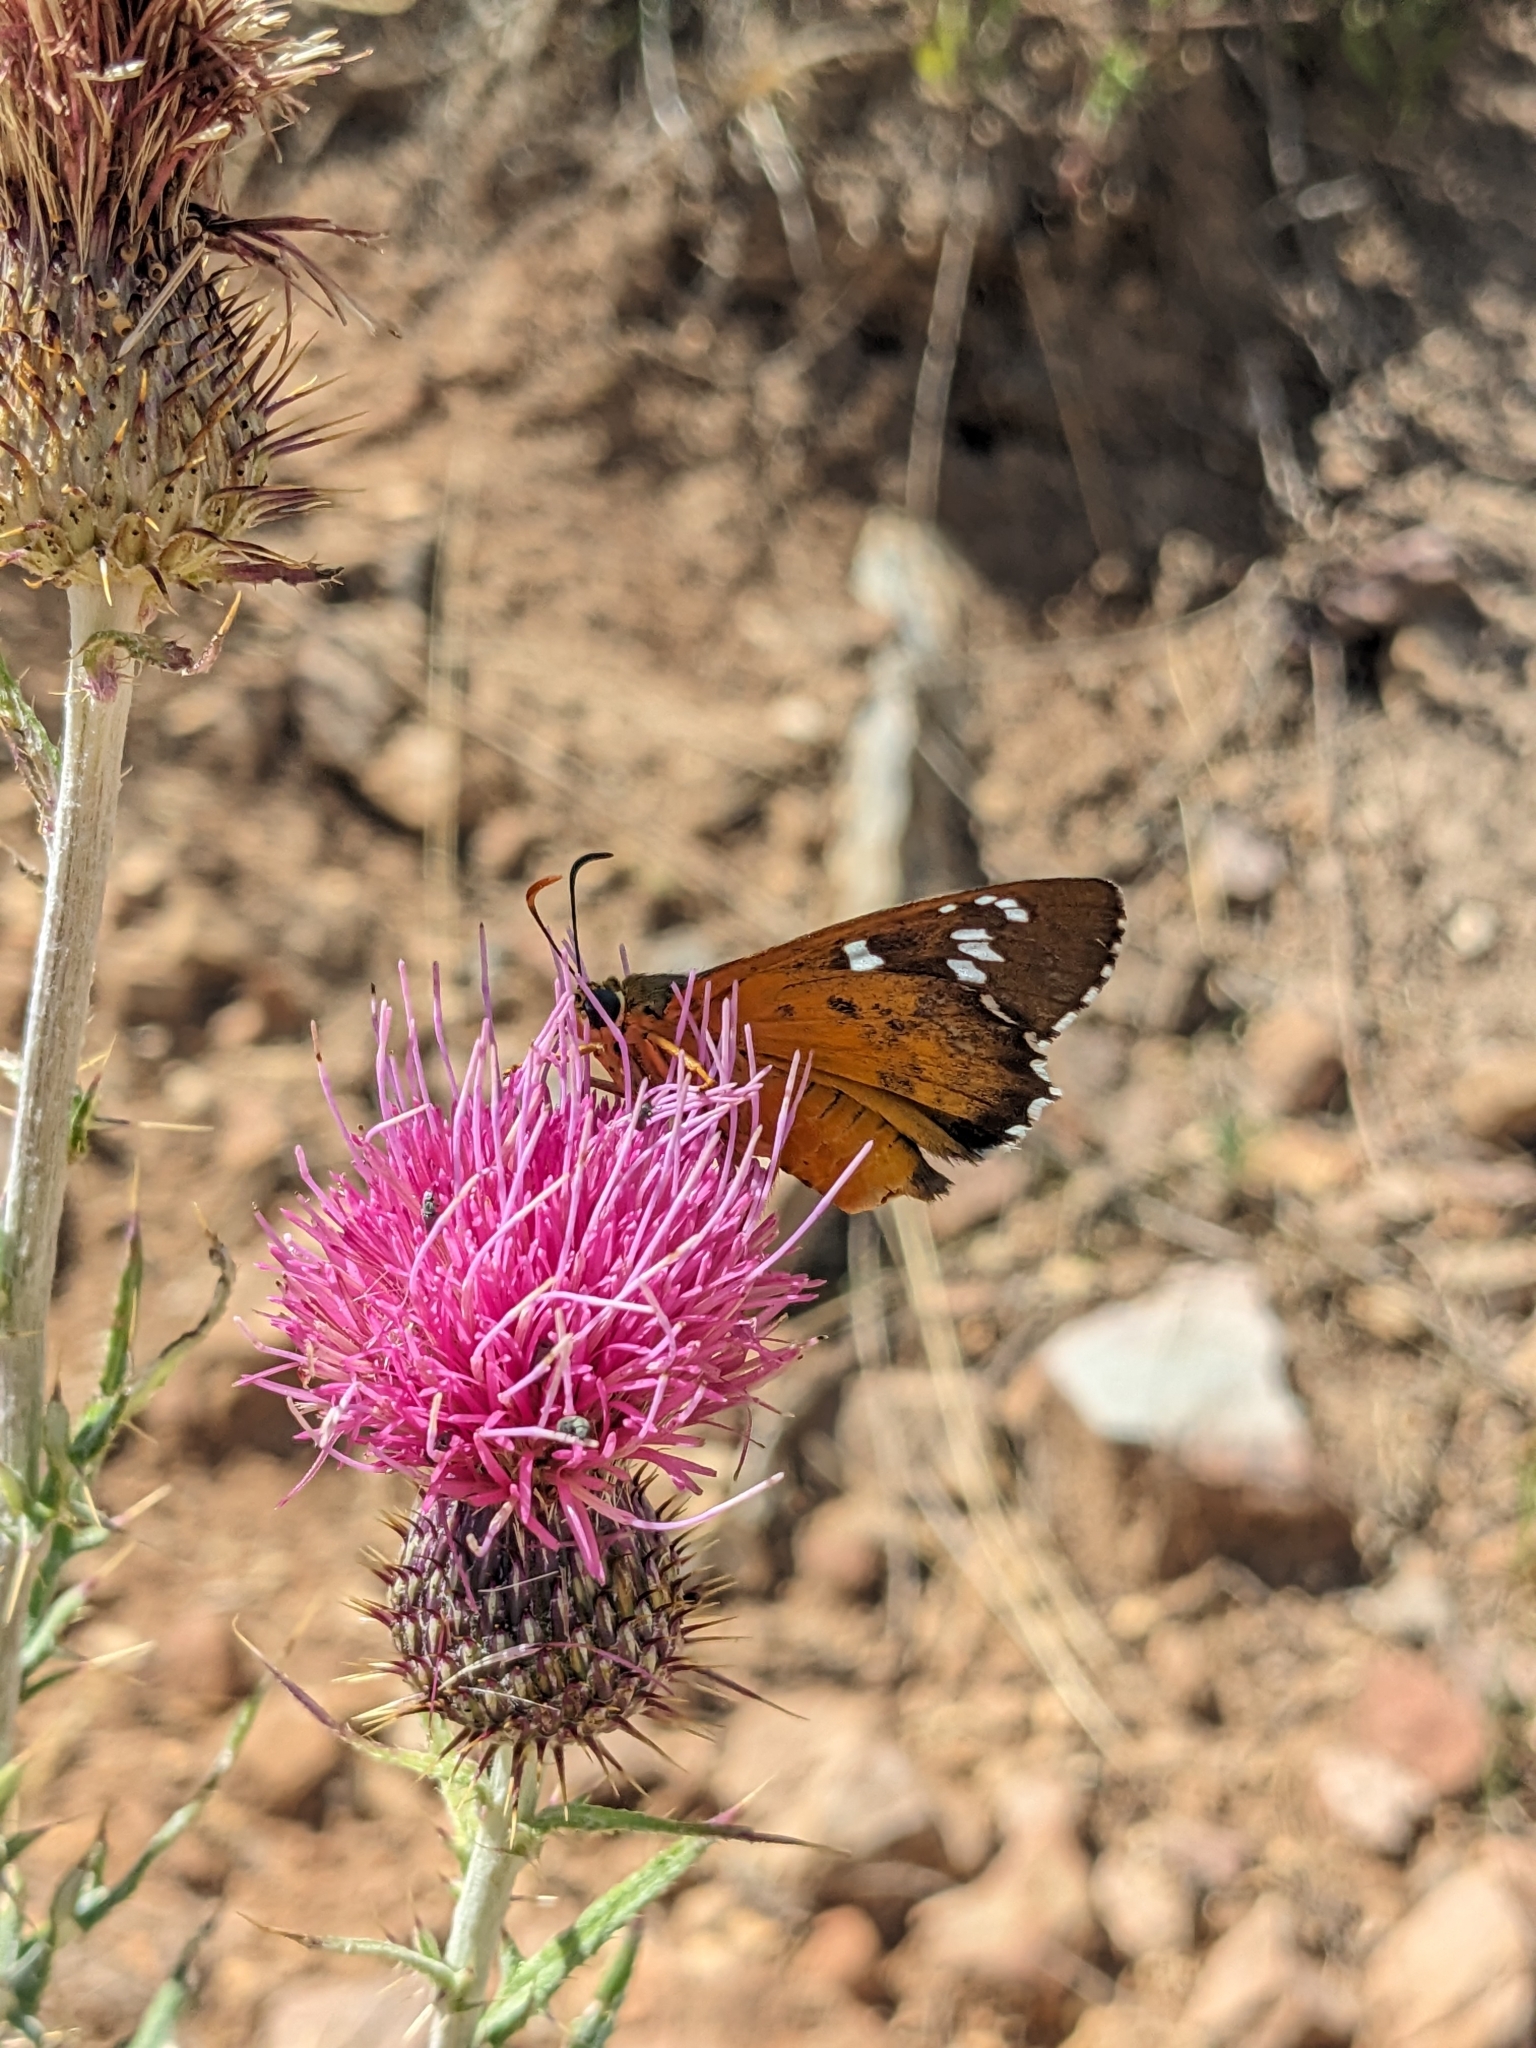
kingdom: Animalia
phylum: Arthropoda
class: Insecta
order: Lepidoptera
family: Hesperiidae
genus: Pyrrhopyge
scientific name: Pyrrhopyge araxes
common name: Dull firetip
